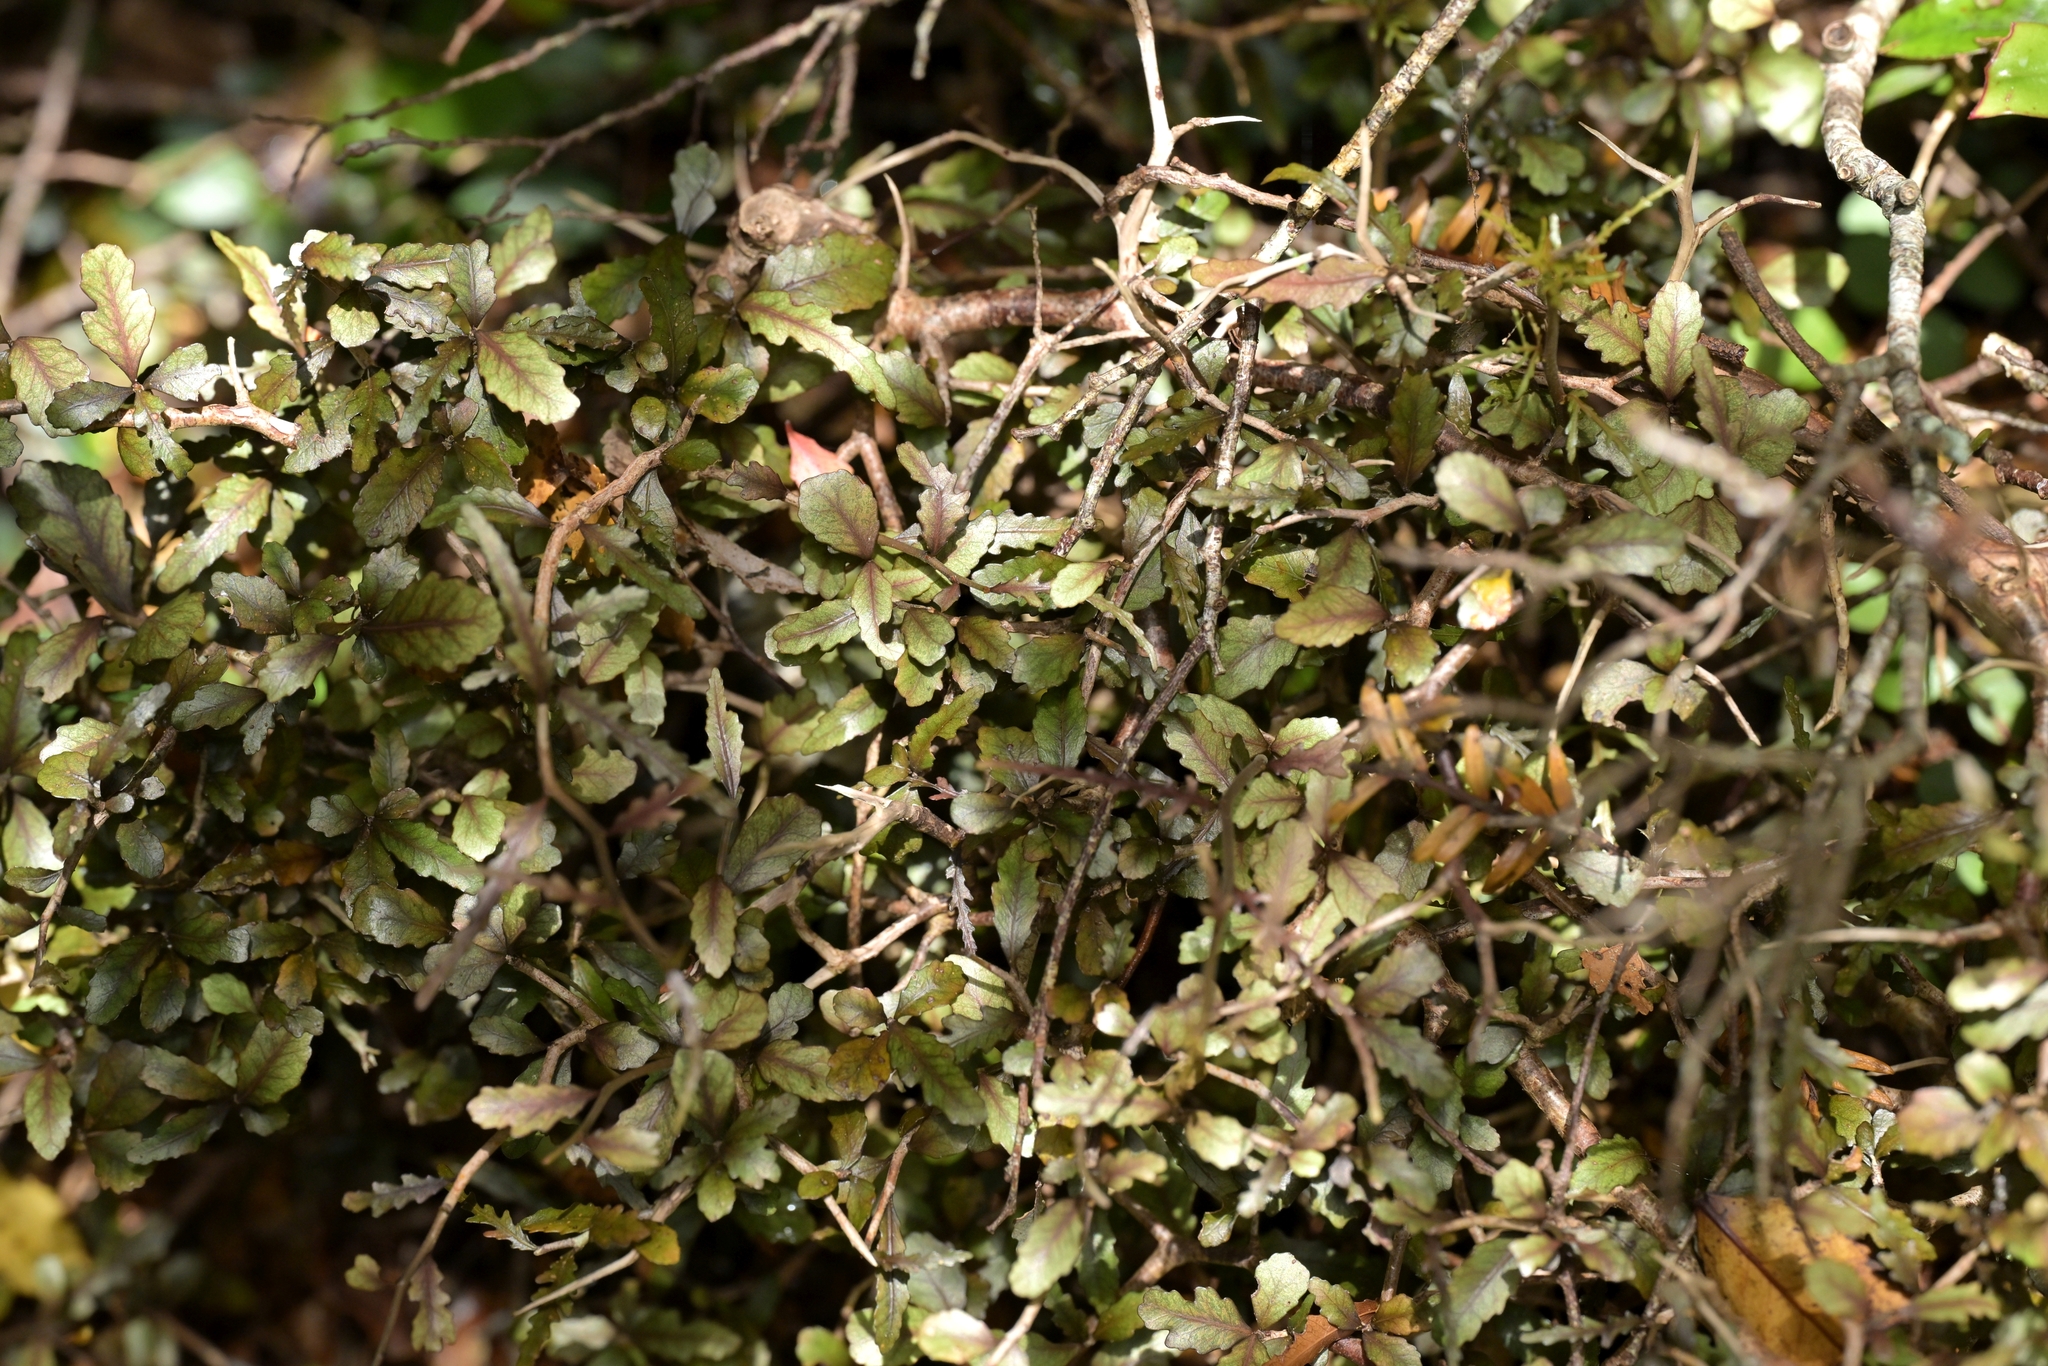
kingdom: Plantae
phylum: Tracheophyta
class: Magnoliopsida
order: Oxalidales
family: Elaeocarpaceae
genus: Elaeocarpus
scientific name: Elaeocarpus hookerianus
